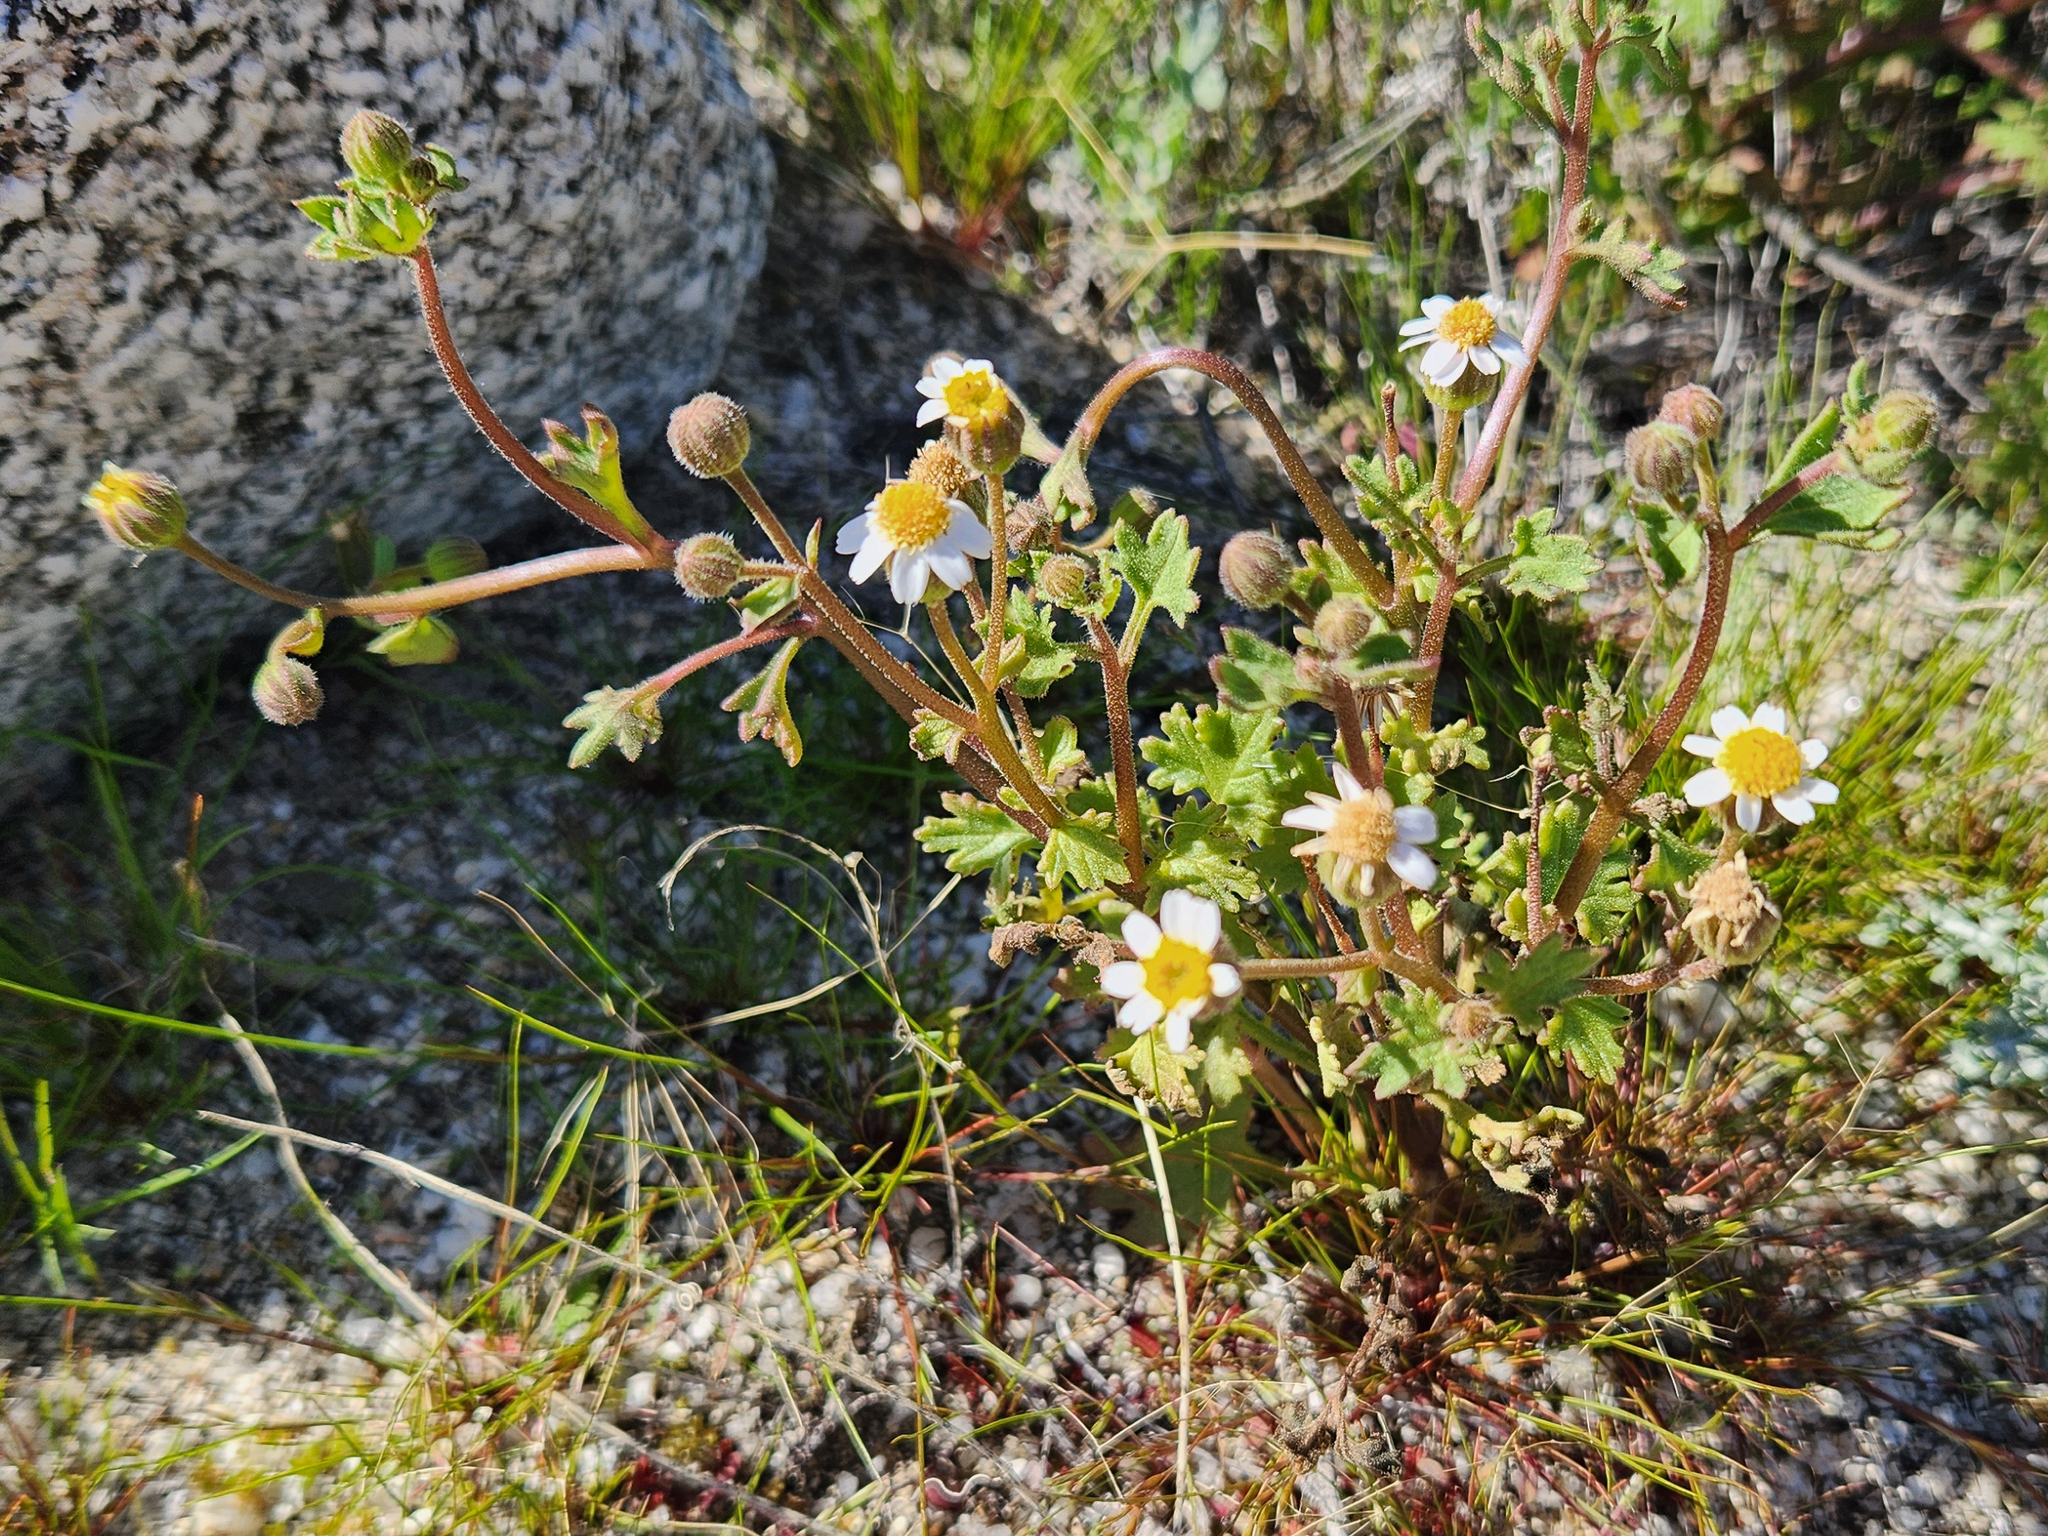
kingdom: Plantae
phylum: Tracheophyta
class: Magnoliopsida
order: Asterales
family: Asteraceae
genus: Laphamia
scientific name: Laphamia emoryi
